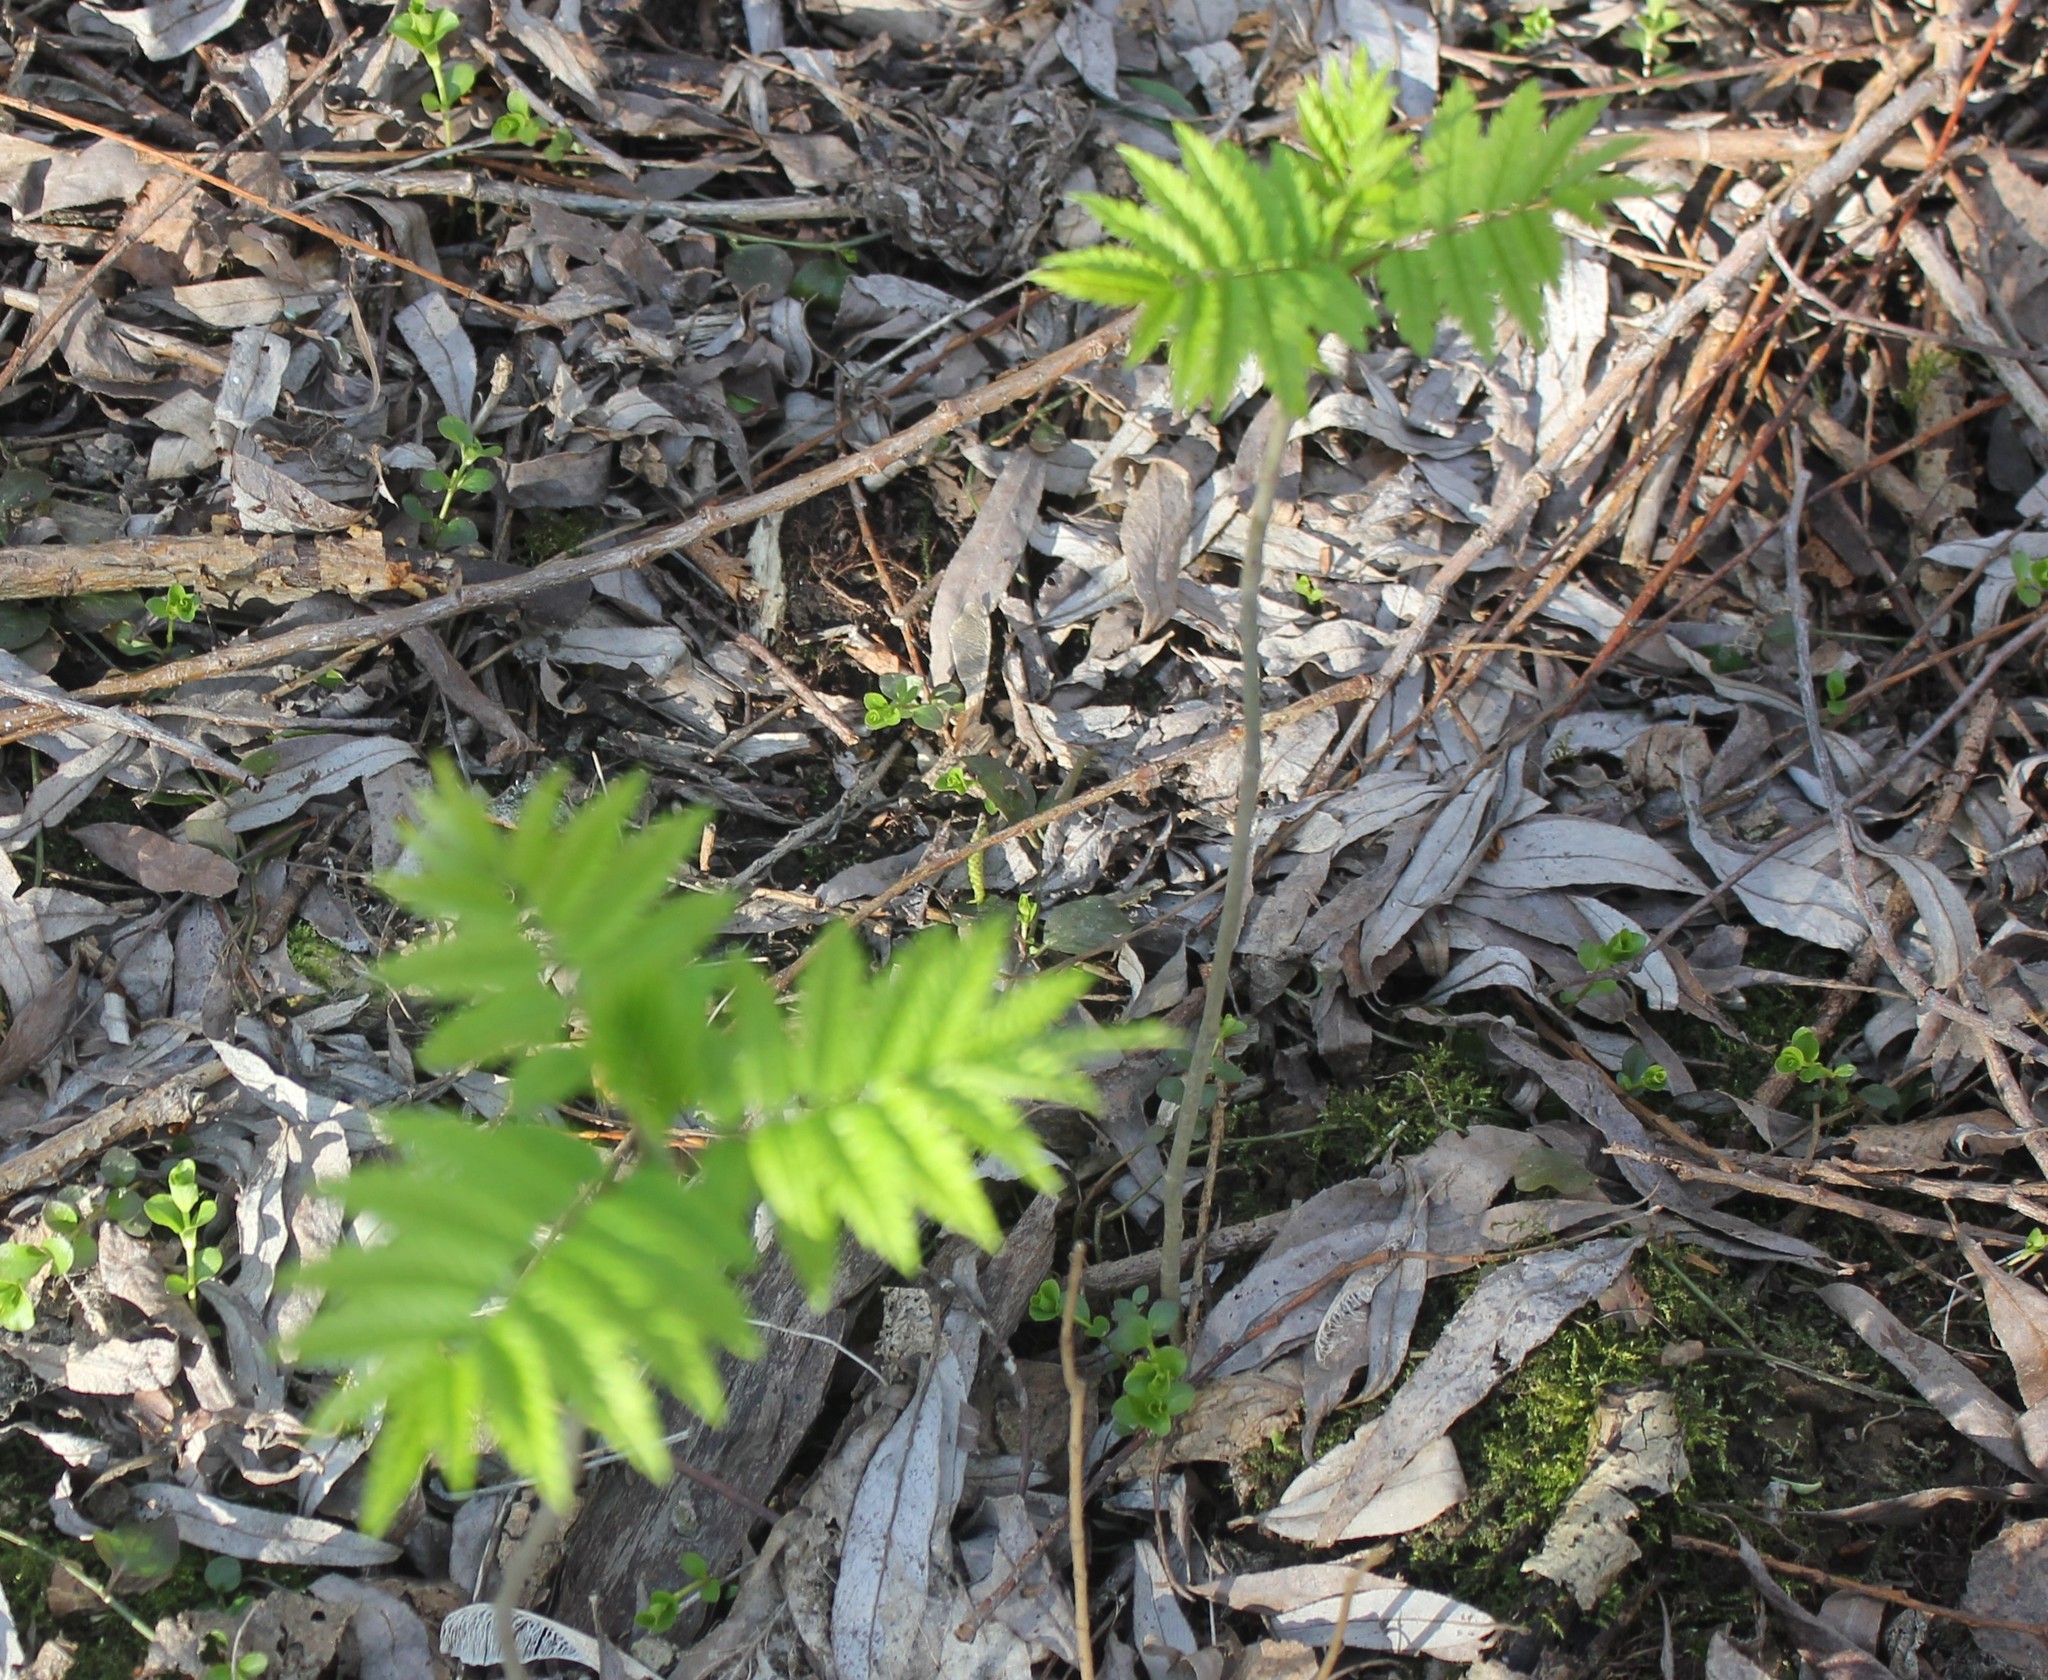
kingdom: Plantae
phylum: Tracheophyta
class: Magnoliopsida
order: Rosales
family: Rosaceae
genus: Sorbus
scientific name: Sorbus aucuparia
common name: Rowan
